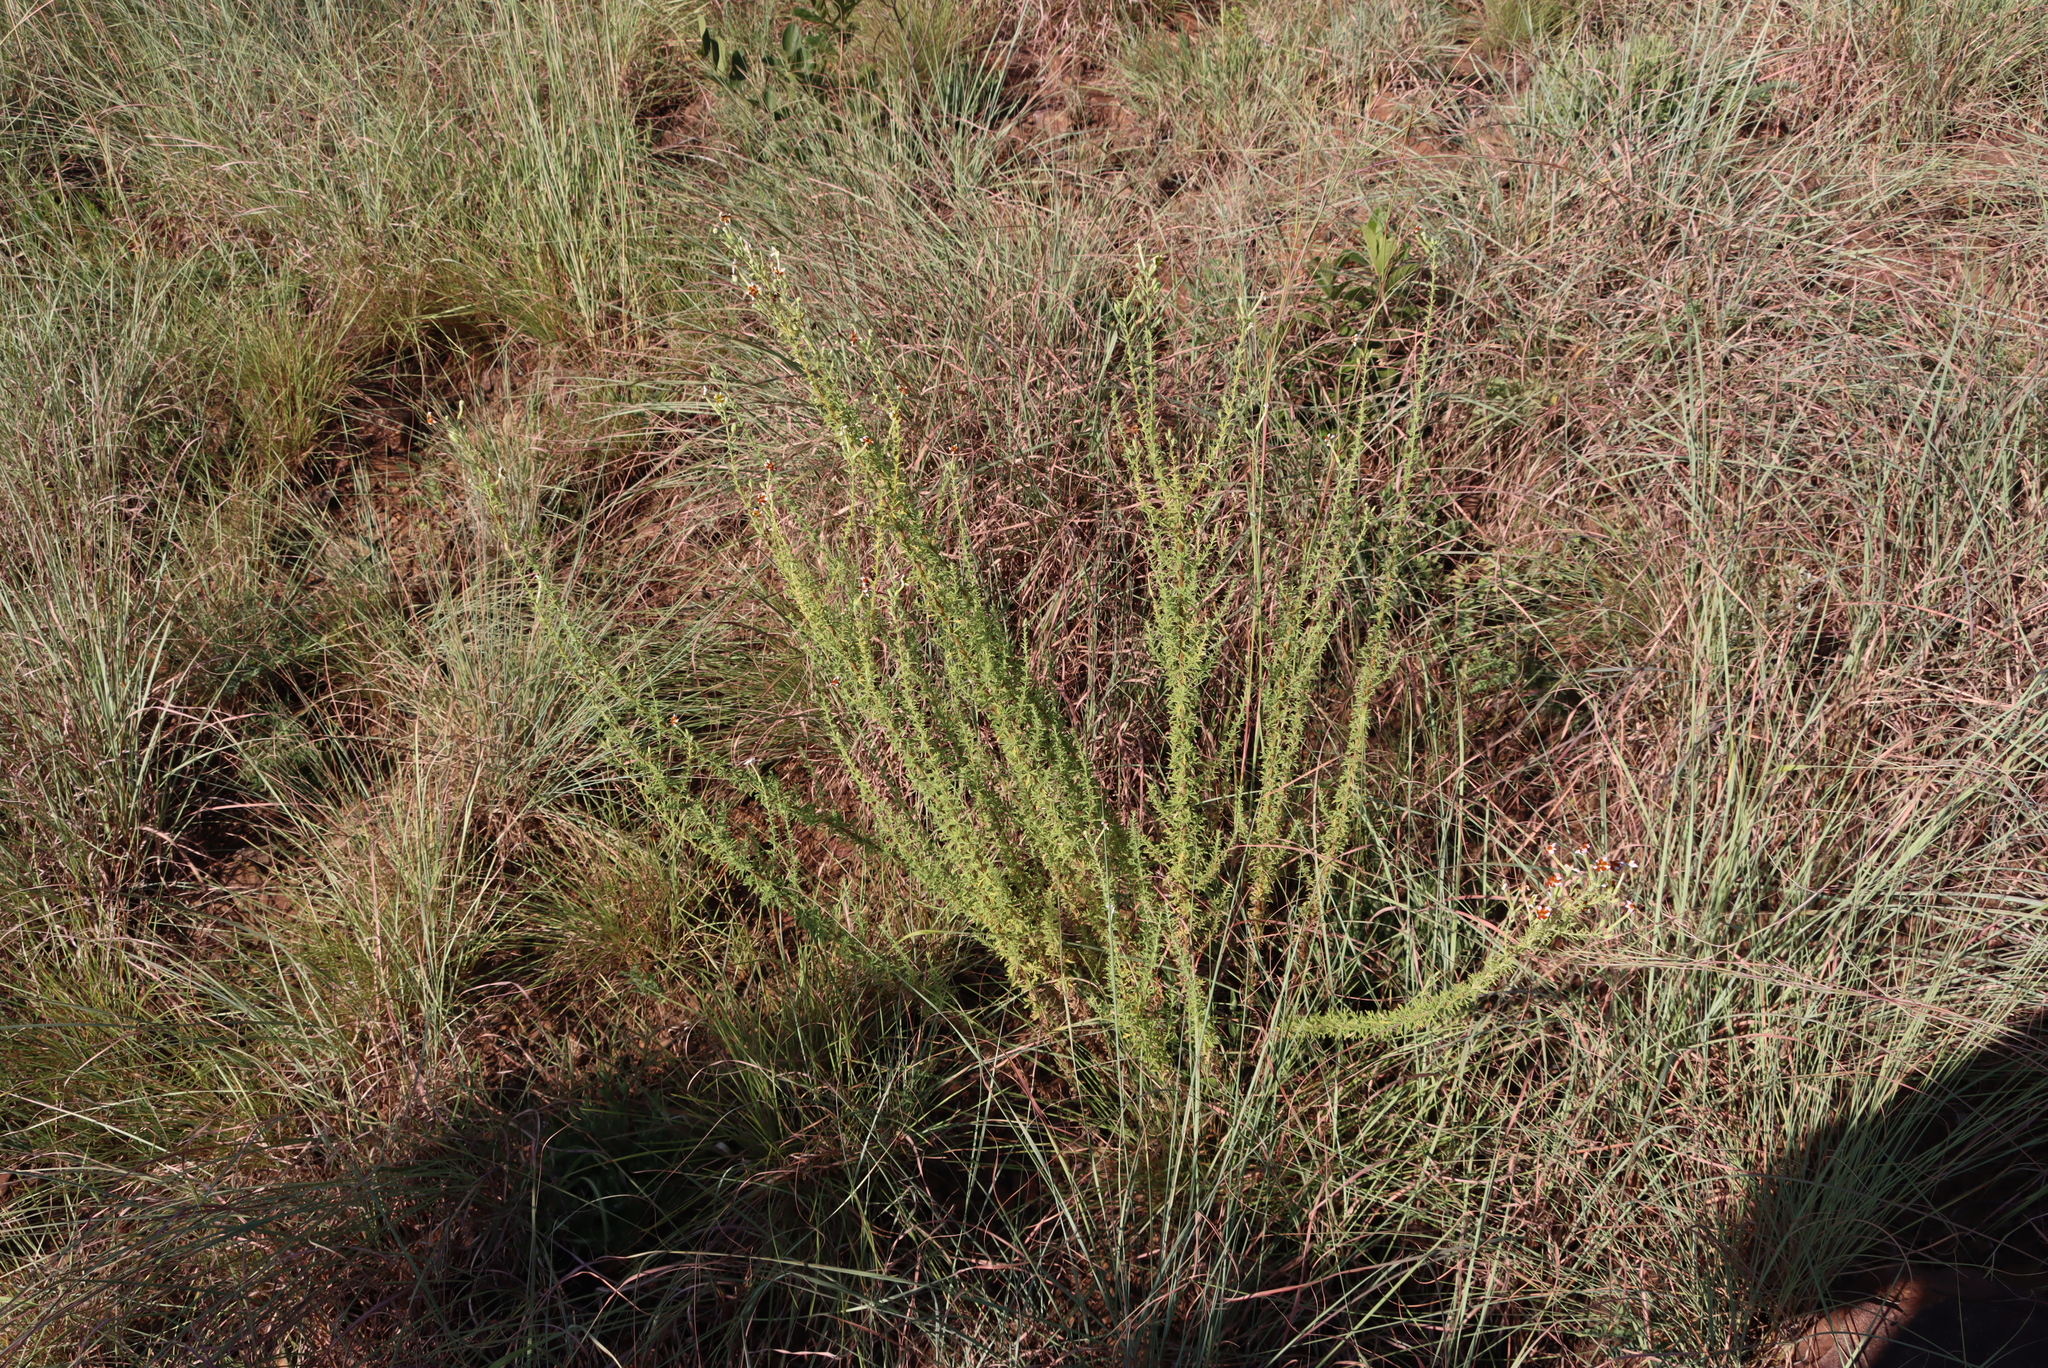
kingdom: Plantae
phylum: Tracheophyta
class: Magnoliopsida
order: Lamiales
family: Scrophulariaceae
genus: Jamesbrittenia
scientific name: Jamesbrittenia burkeana
